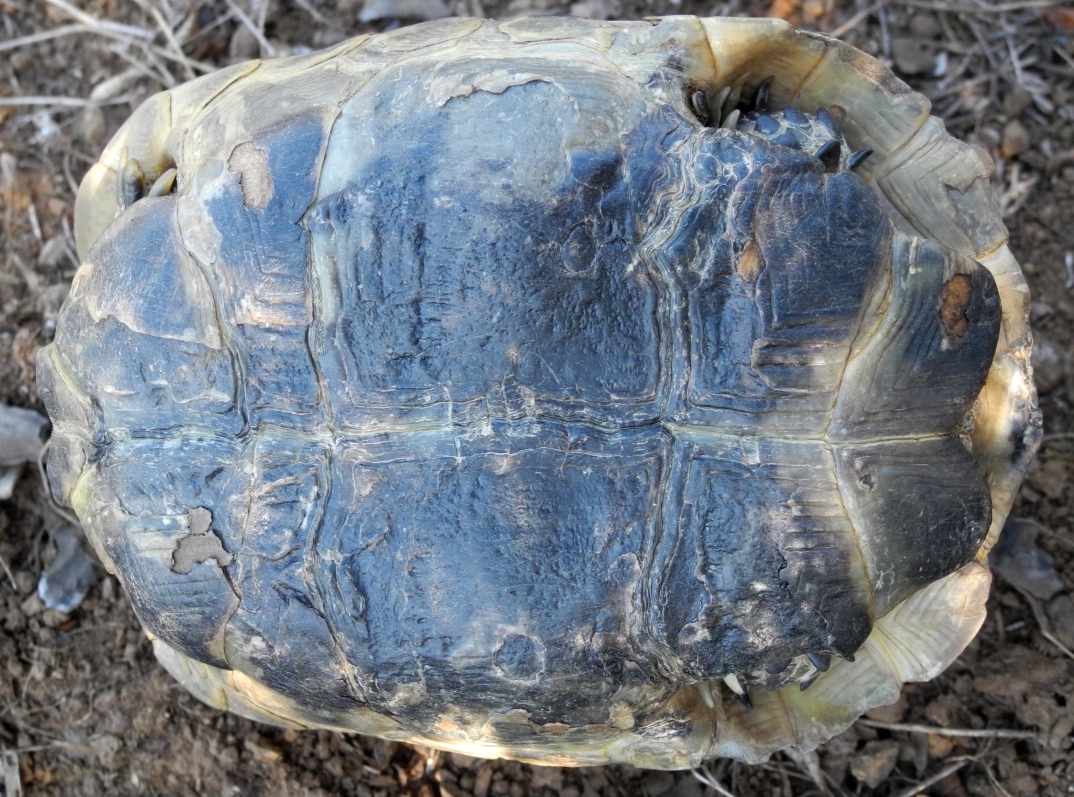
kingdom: Animalia
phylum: Chordata
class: Testudines
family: Testudinidae
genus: Testudo
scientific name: Testudo graeca
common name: Common tortoise
